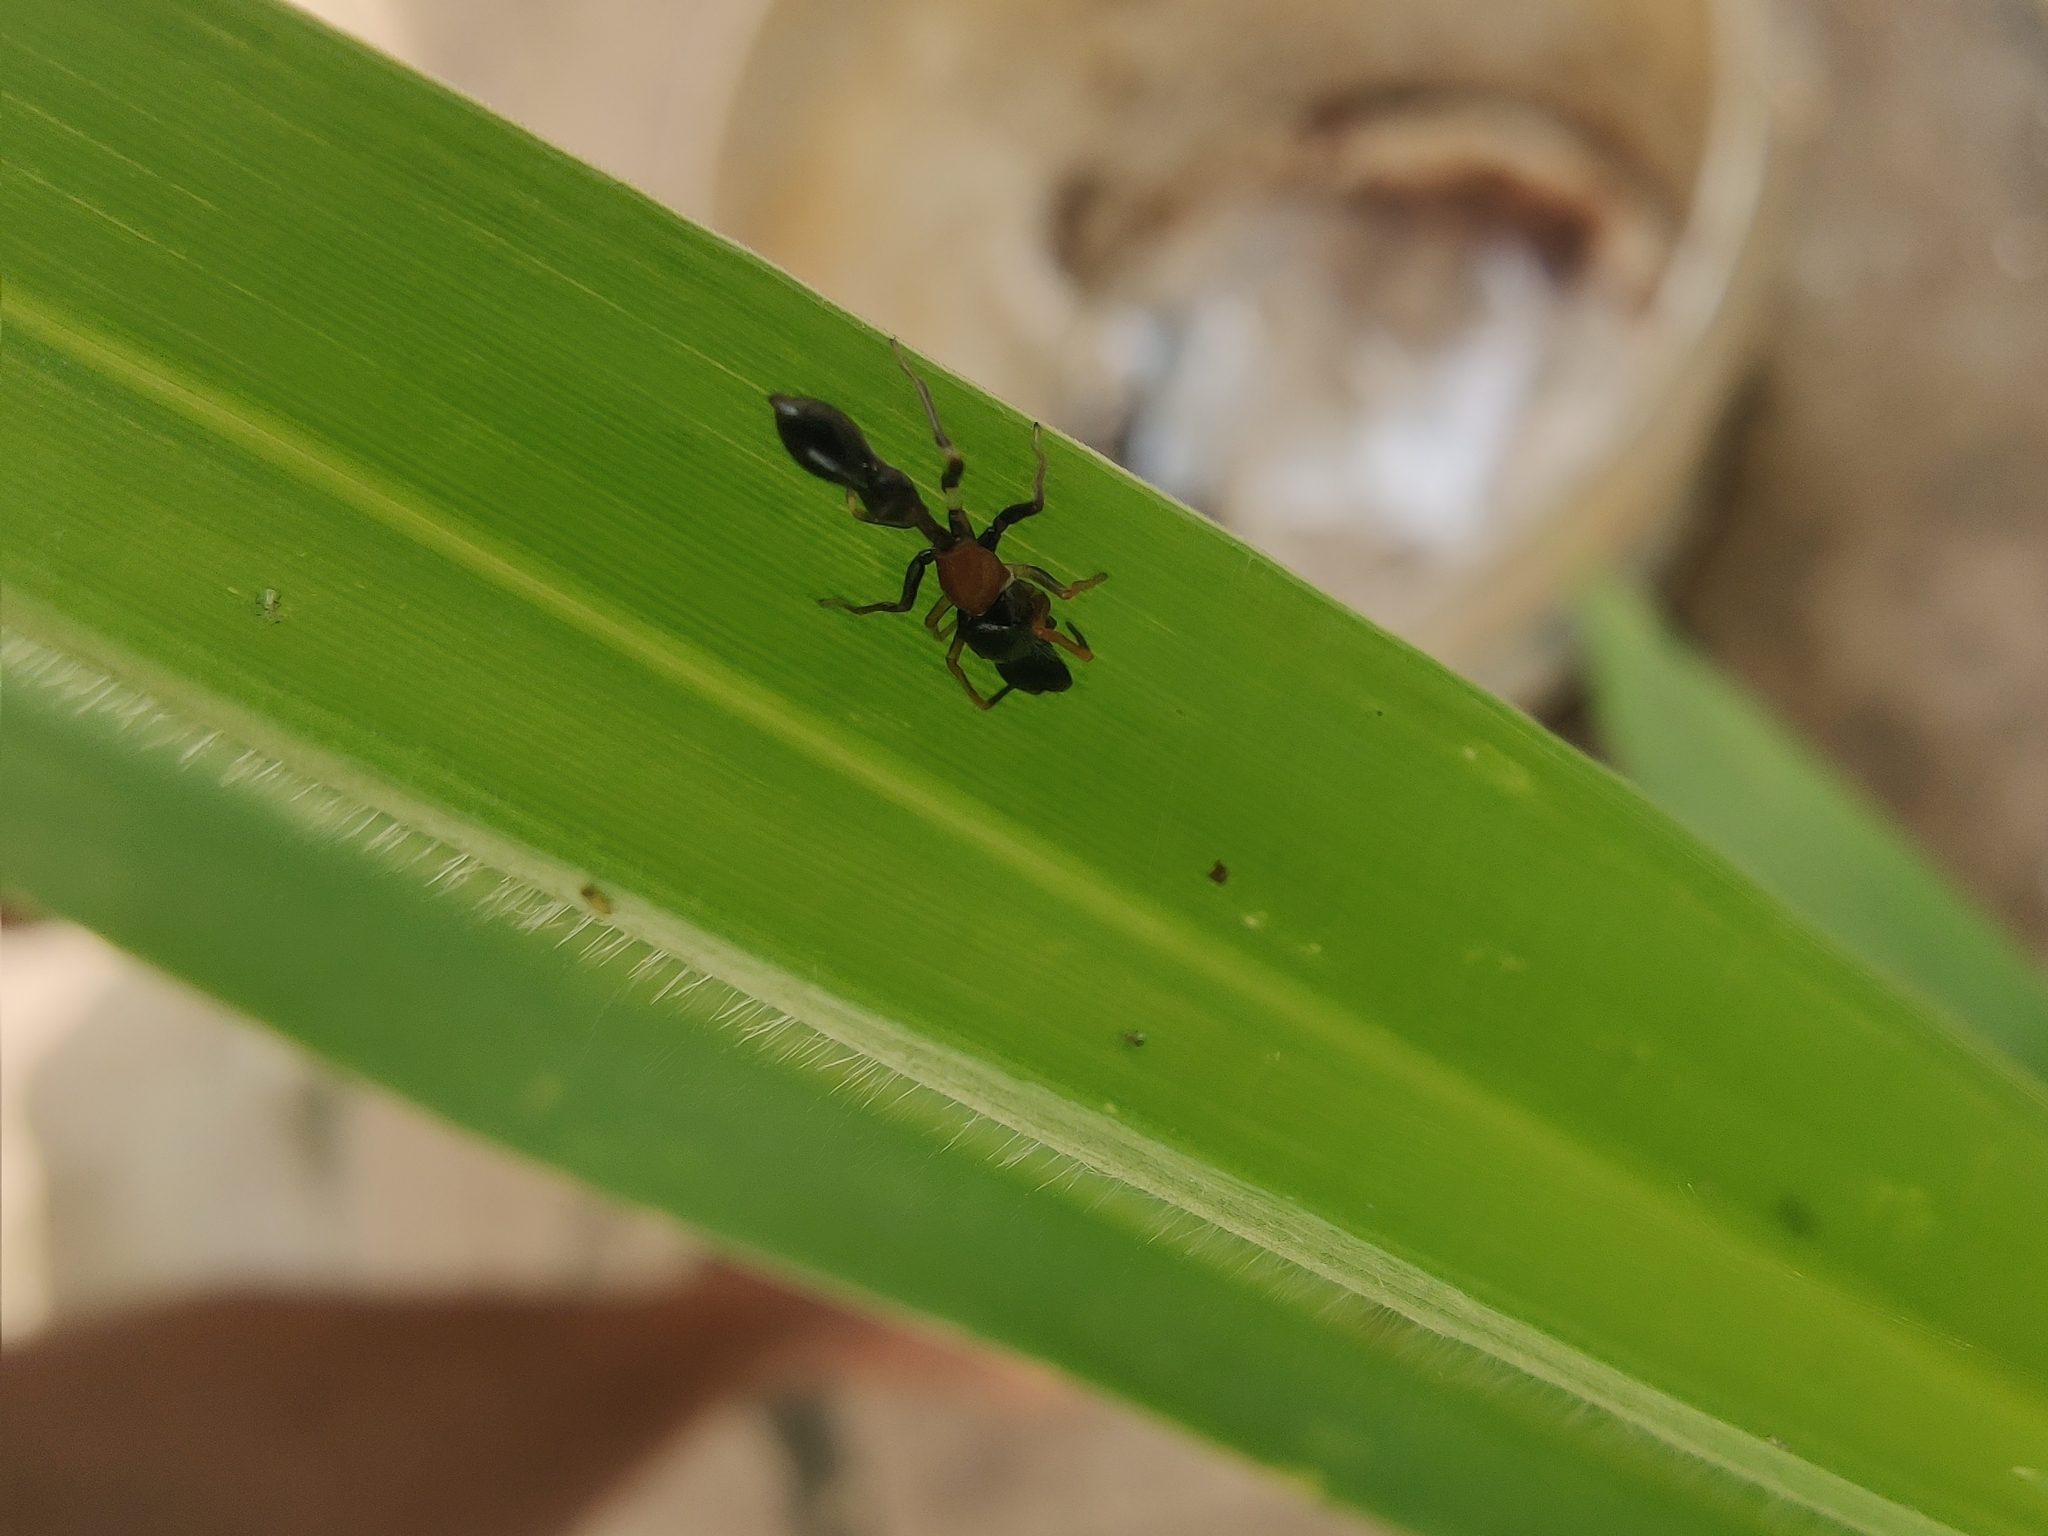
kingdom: Animalia
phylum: Arthropoda
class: Arachnida
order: Araneae
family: Salticidae
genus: Myrmarachne
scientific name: Myrmarachne melanocephala
